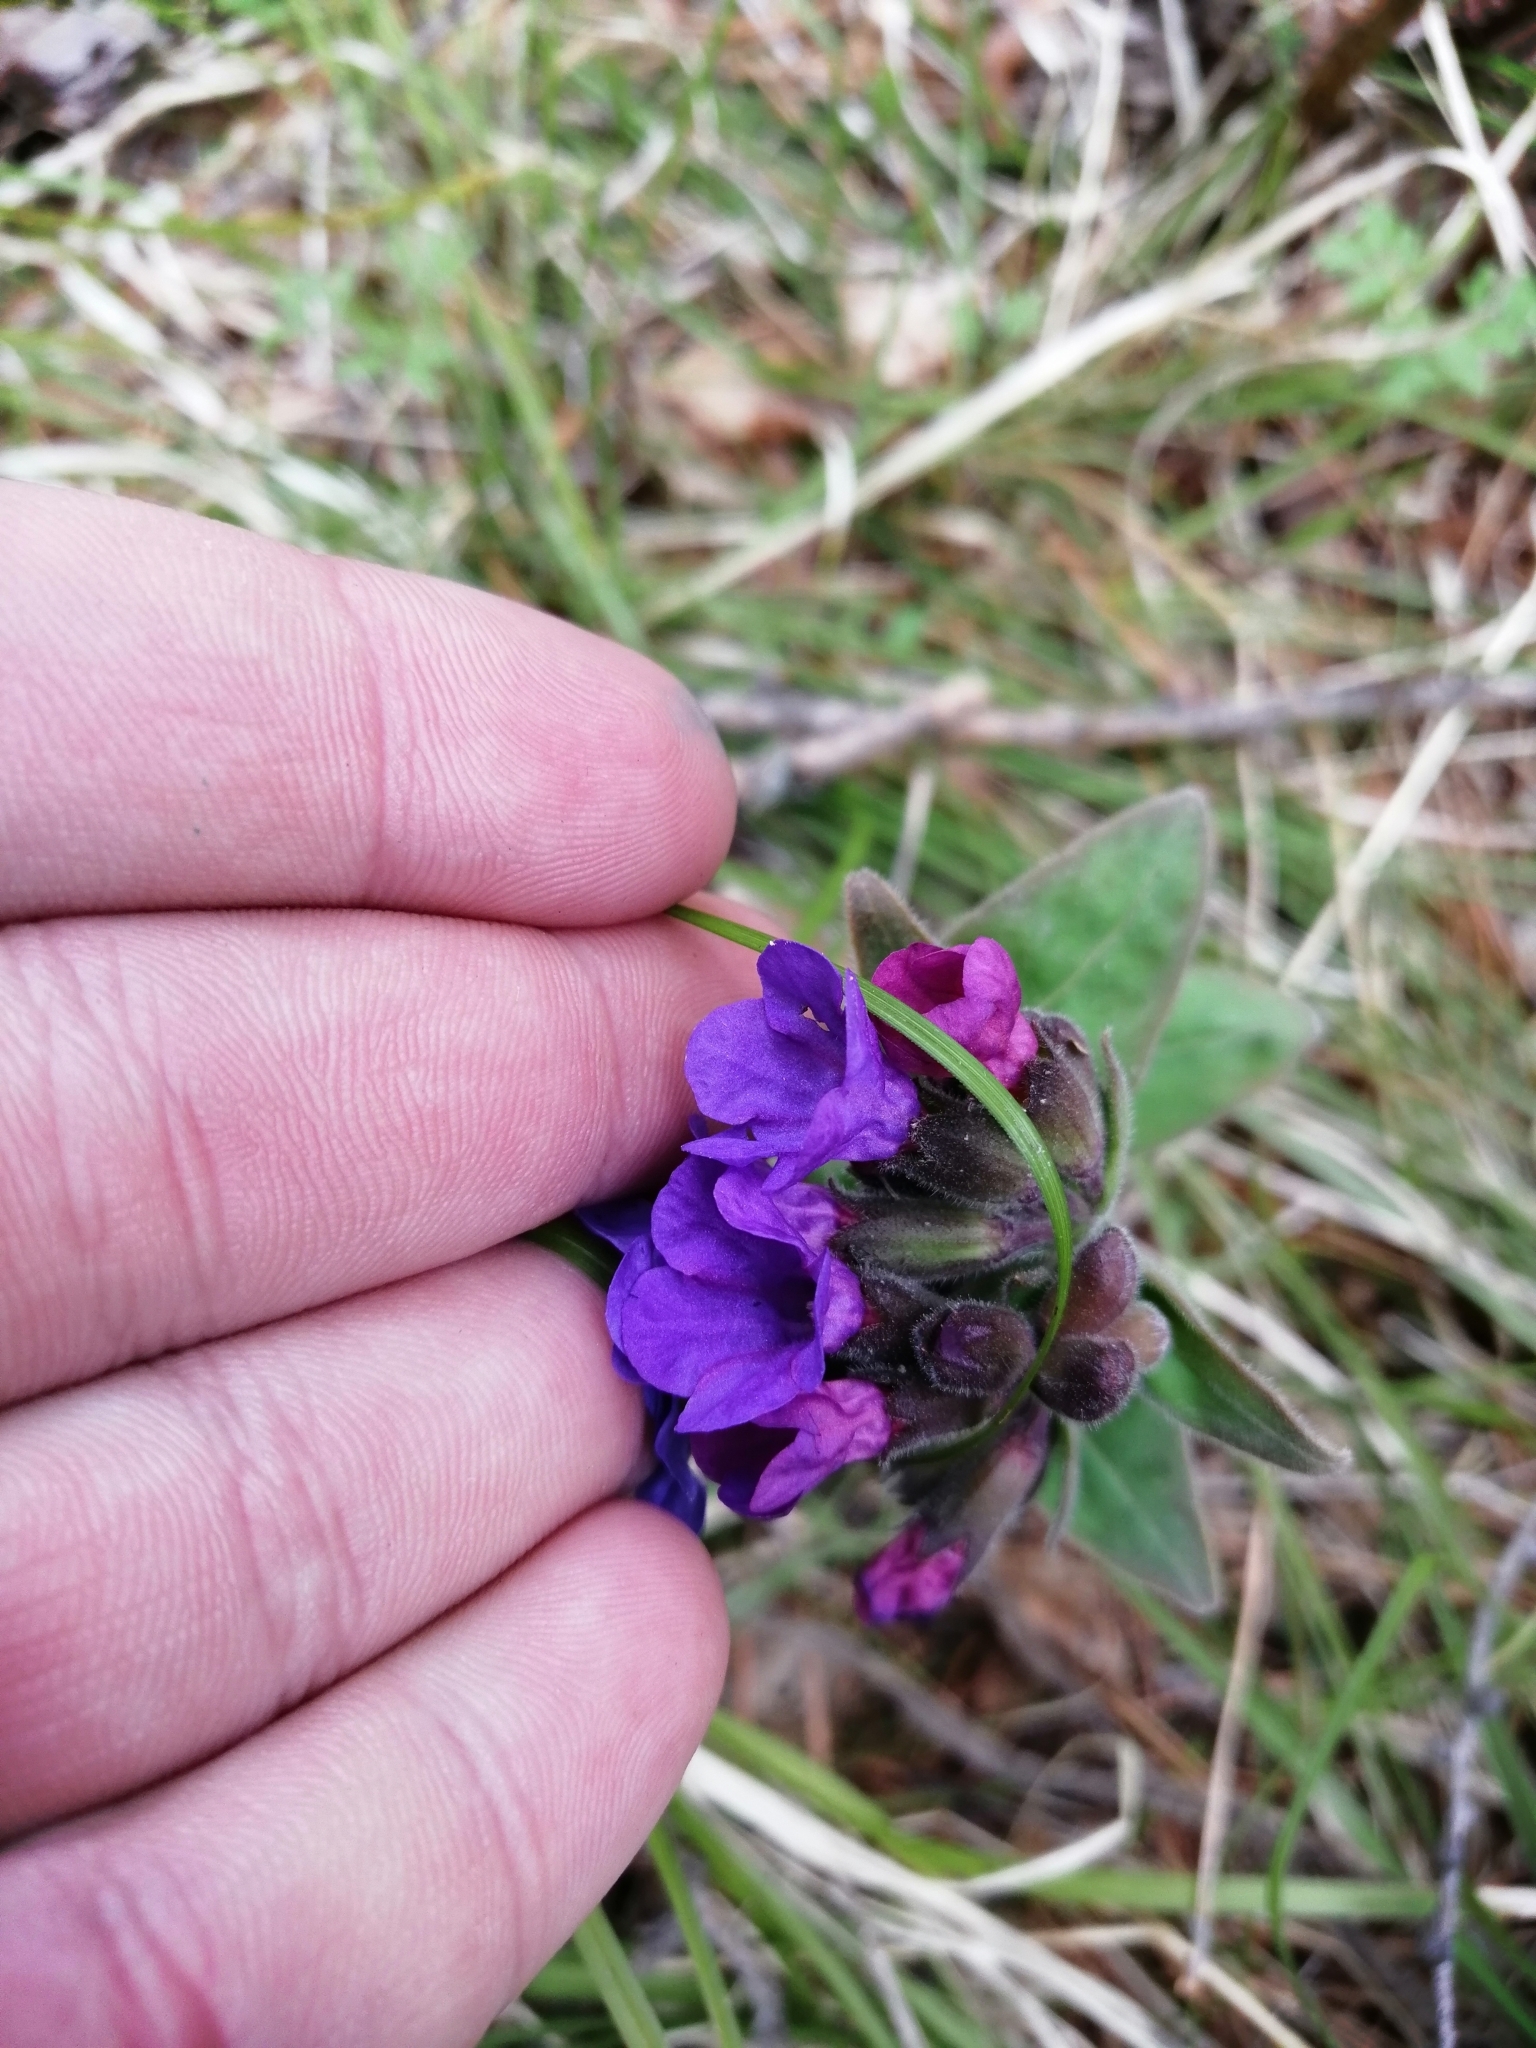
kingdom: Plantae
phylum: Tracheophyta
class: Magnoliopsida
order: Boraginales
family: Boraginaceae
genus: Pulmonaria
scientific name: Pulmonaria mollis
